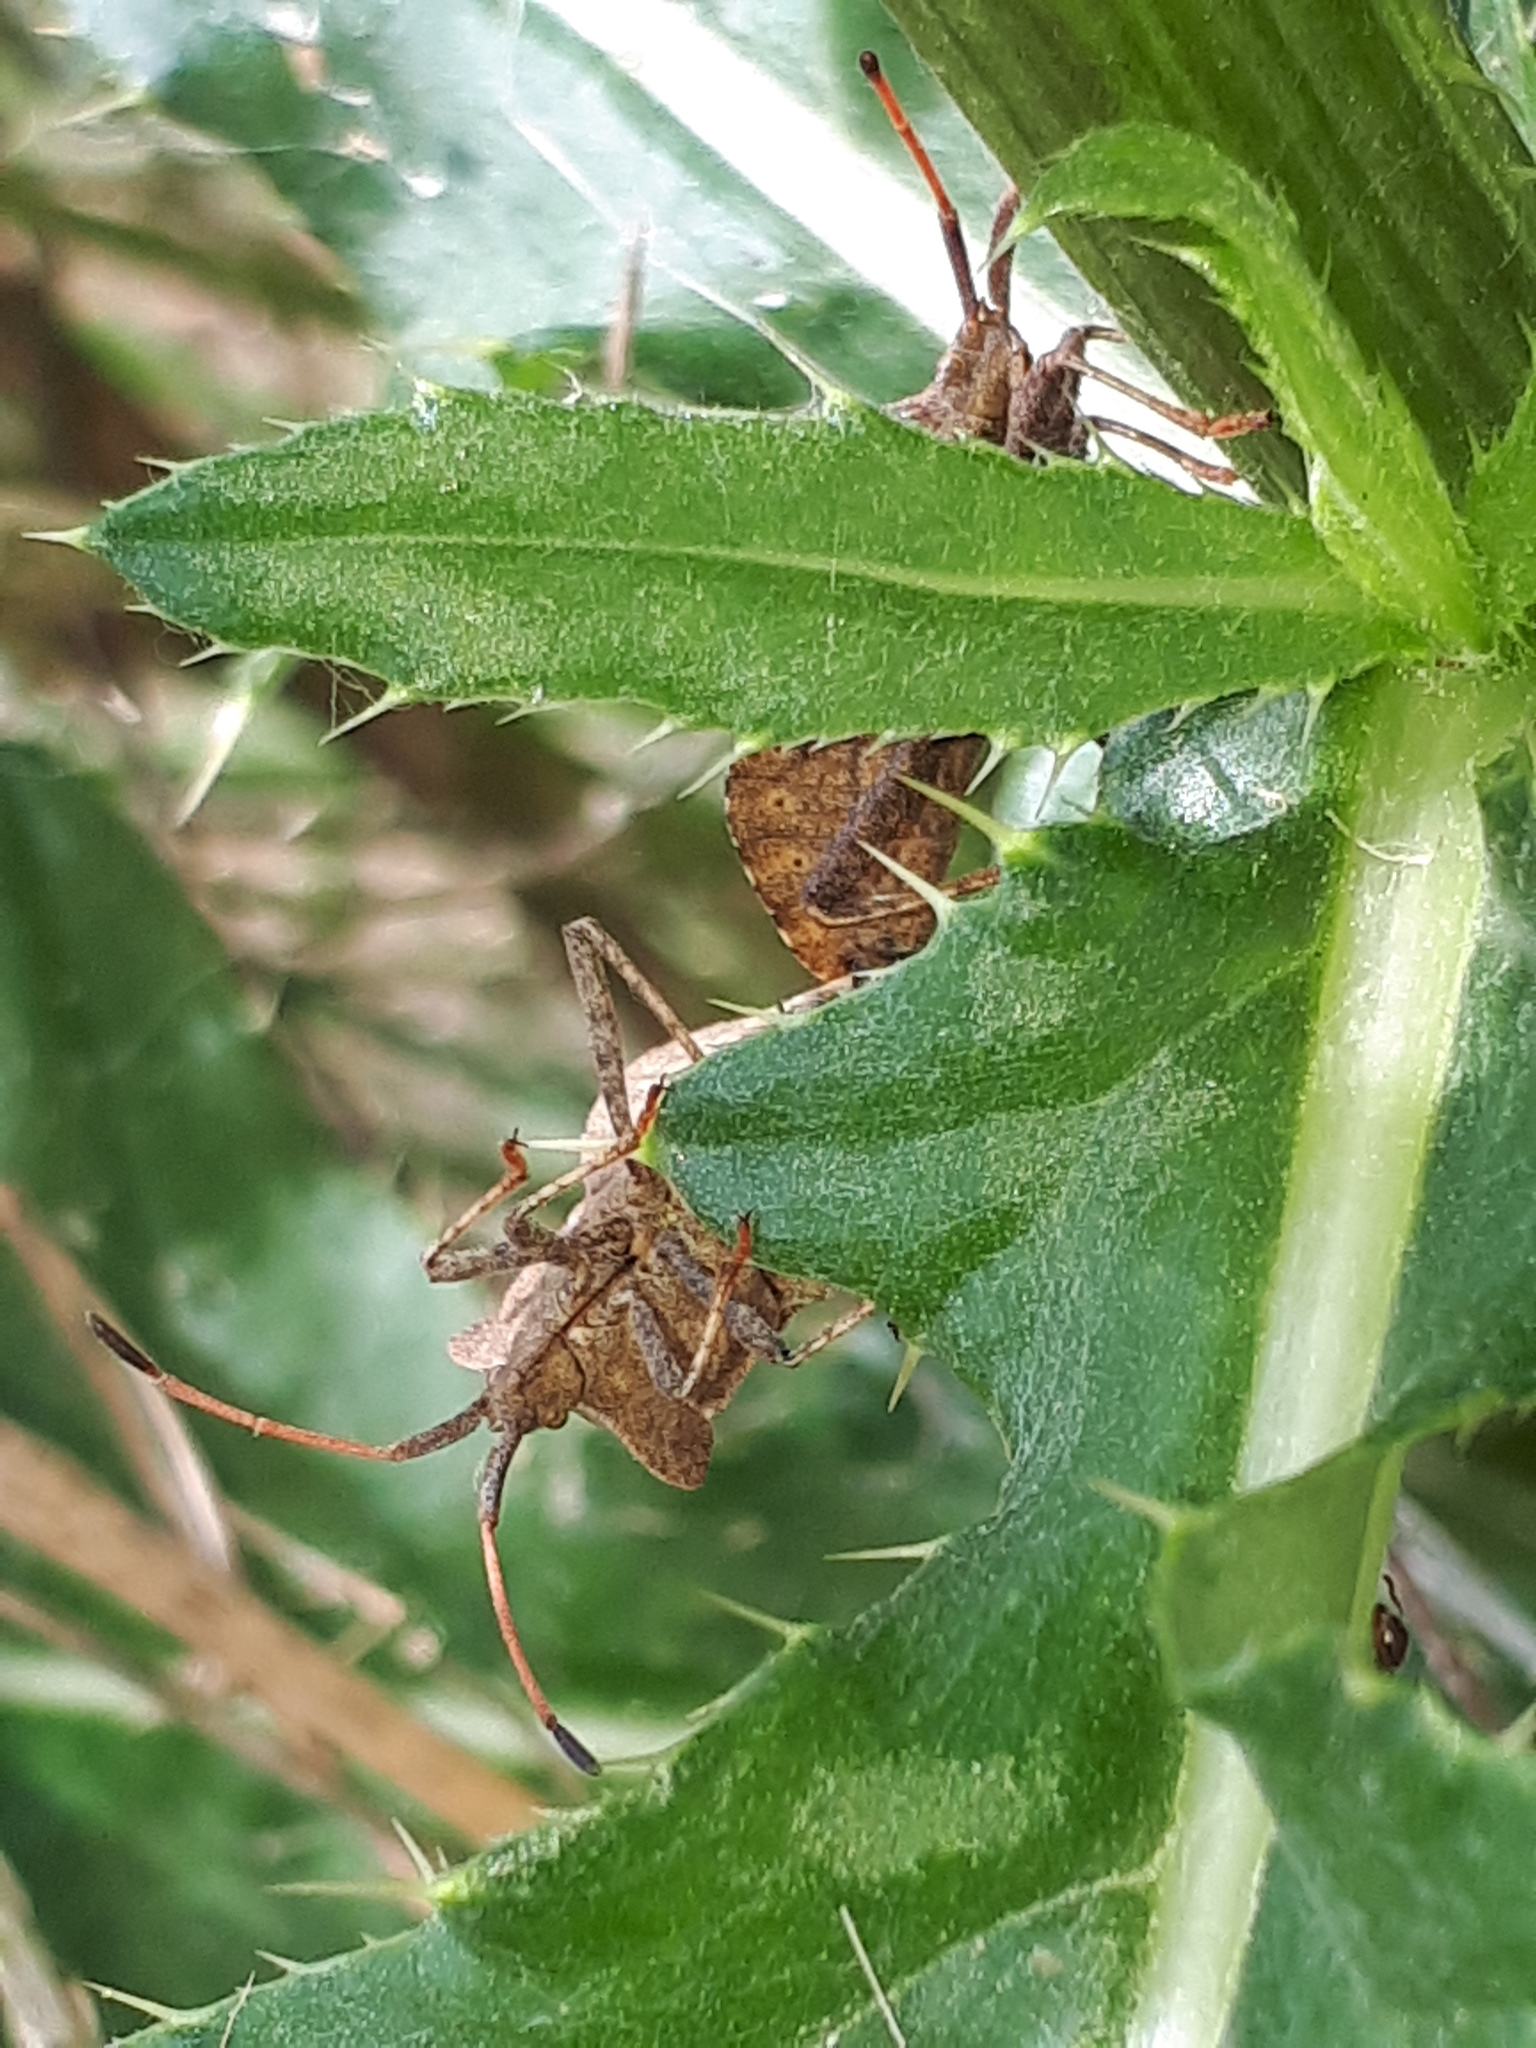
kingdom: Animalia
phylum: Arthropoda
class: Insecta
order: Hemiptera
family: Coreidae
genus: Coreus
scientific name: Coreus marginatus
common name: Dock bug
